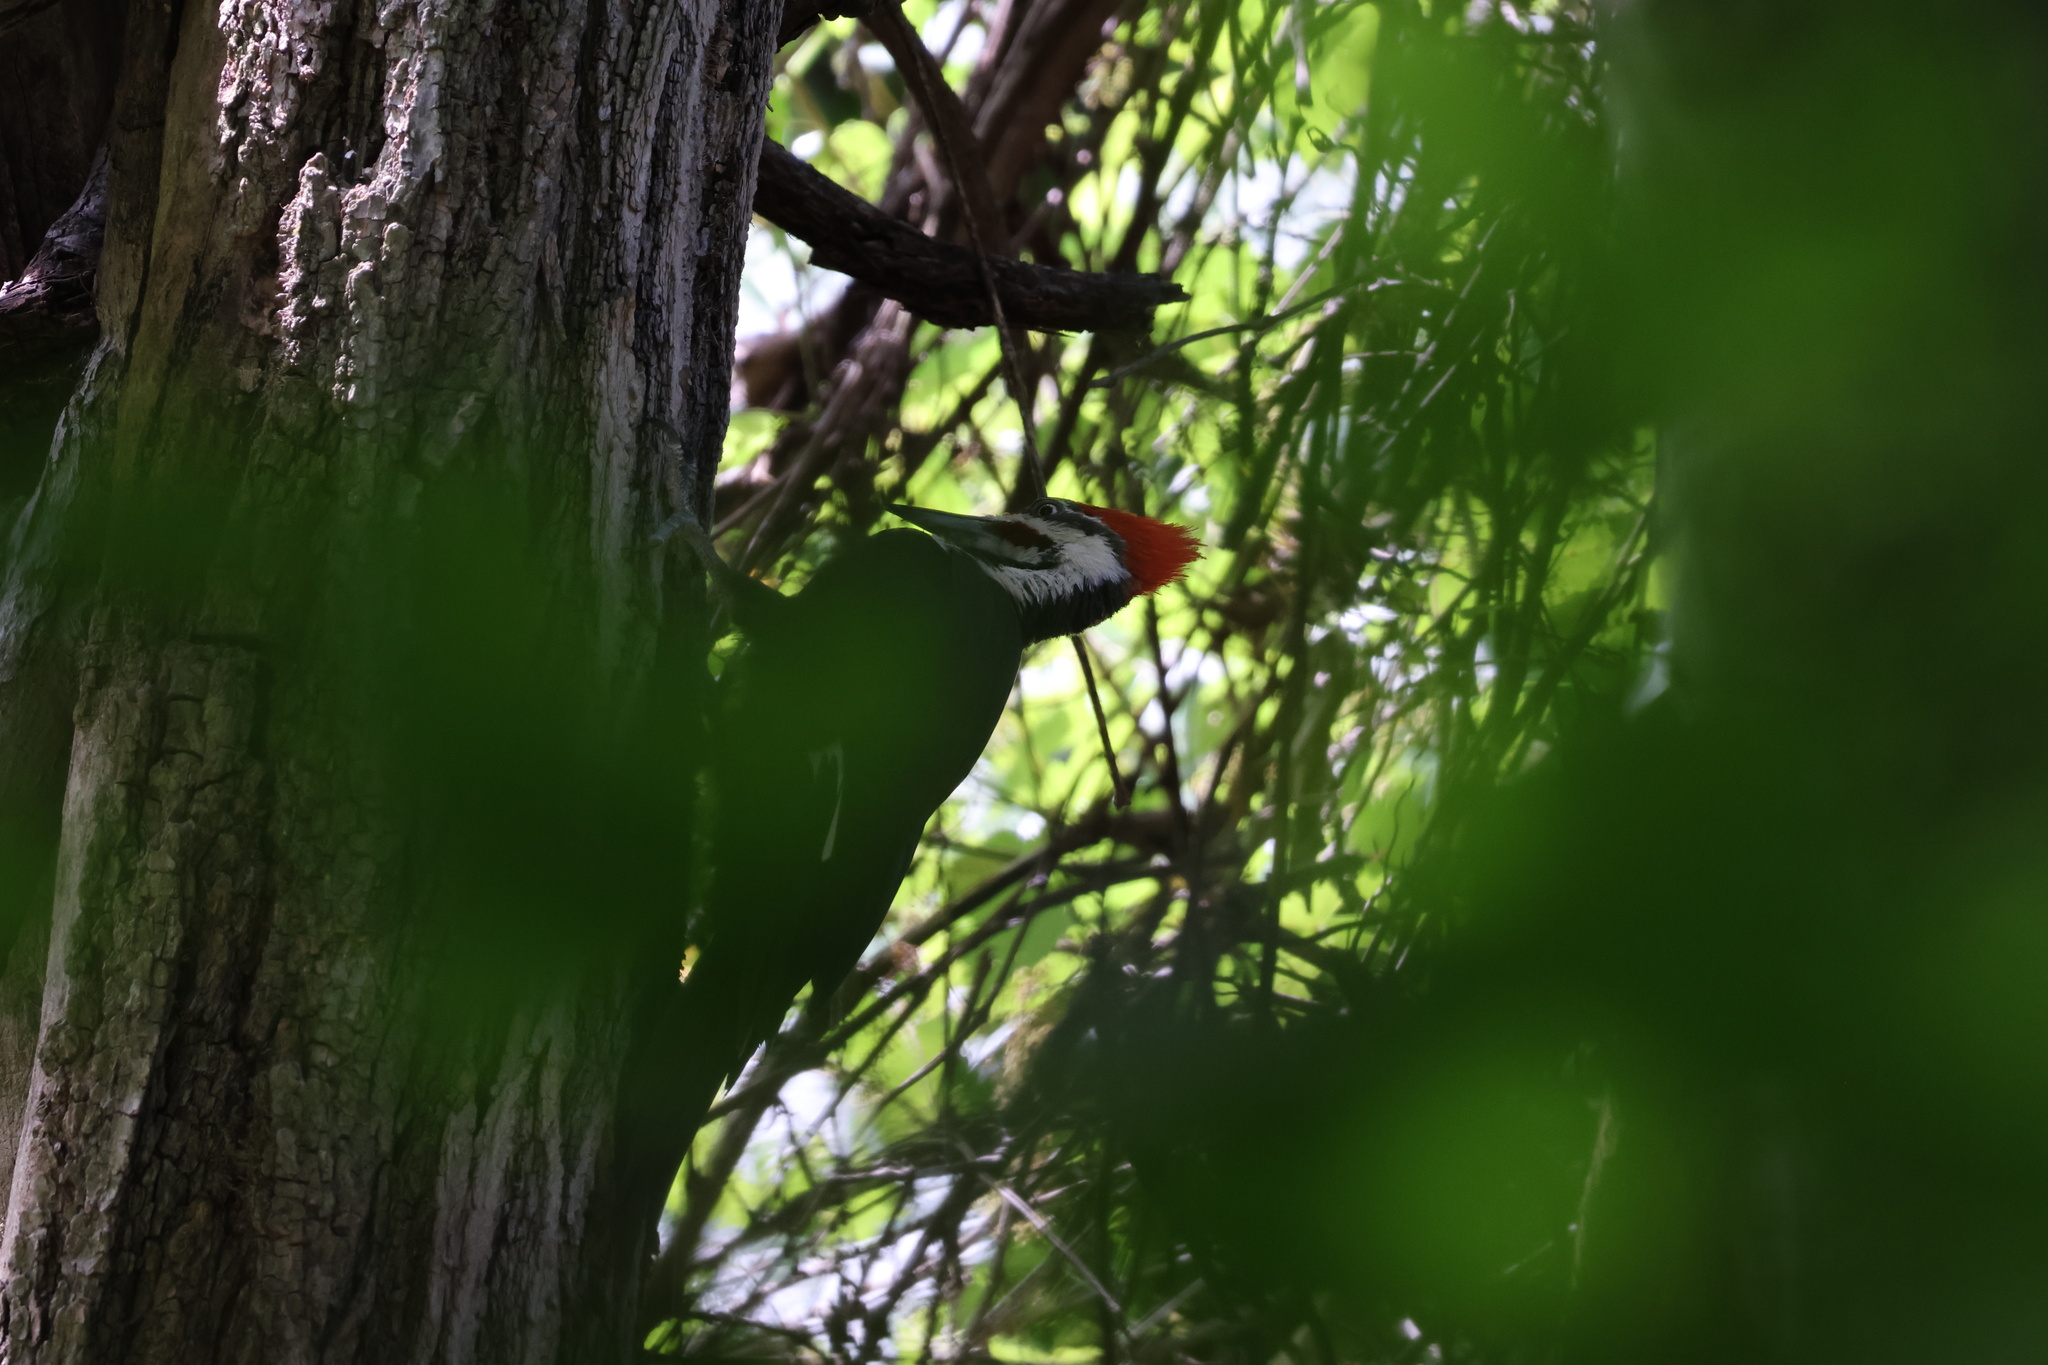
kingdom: Animalia
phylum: Chordata
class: Aves
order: Piciformes
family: Picidae
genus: Dryocopus
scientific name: Dryocopus pileatus
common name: Pileated woodpecker
